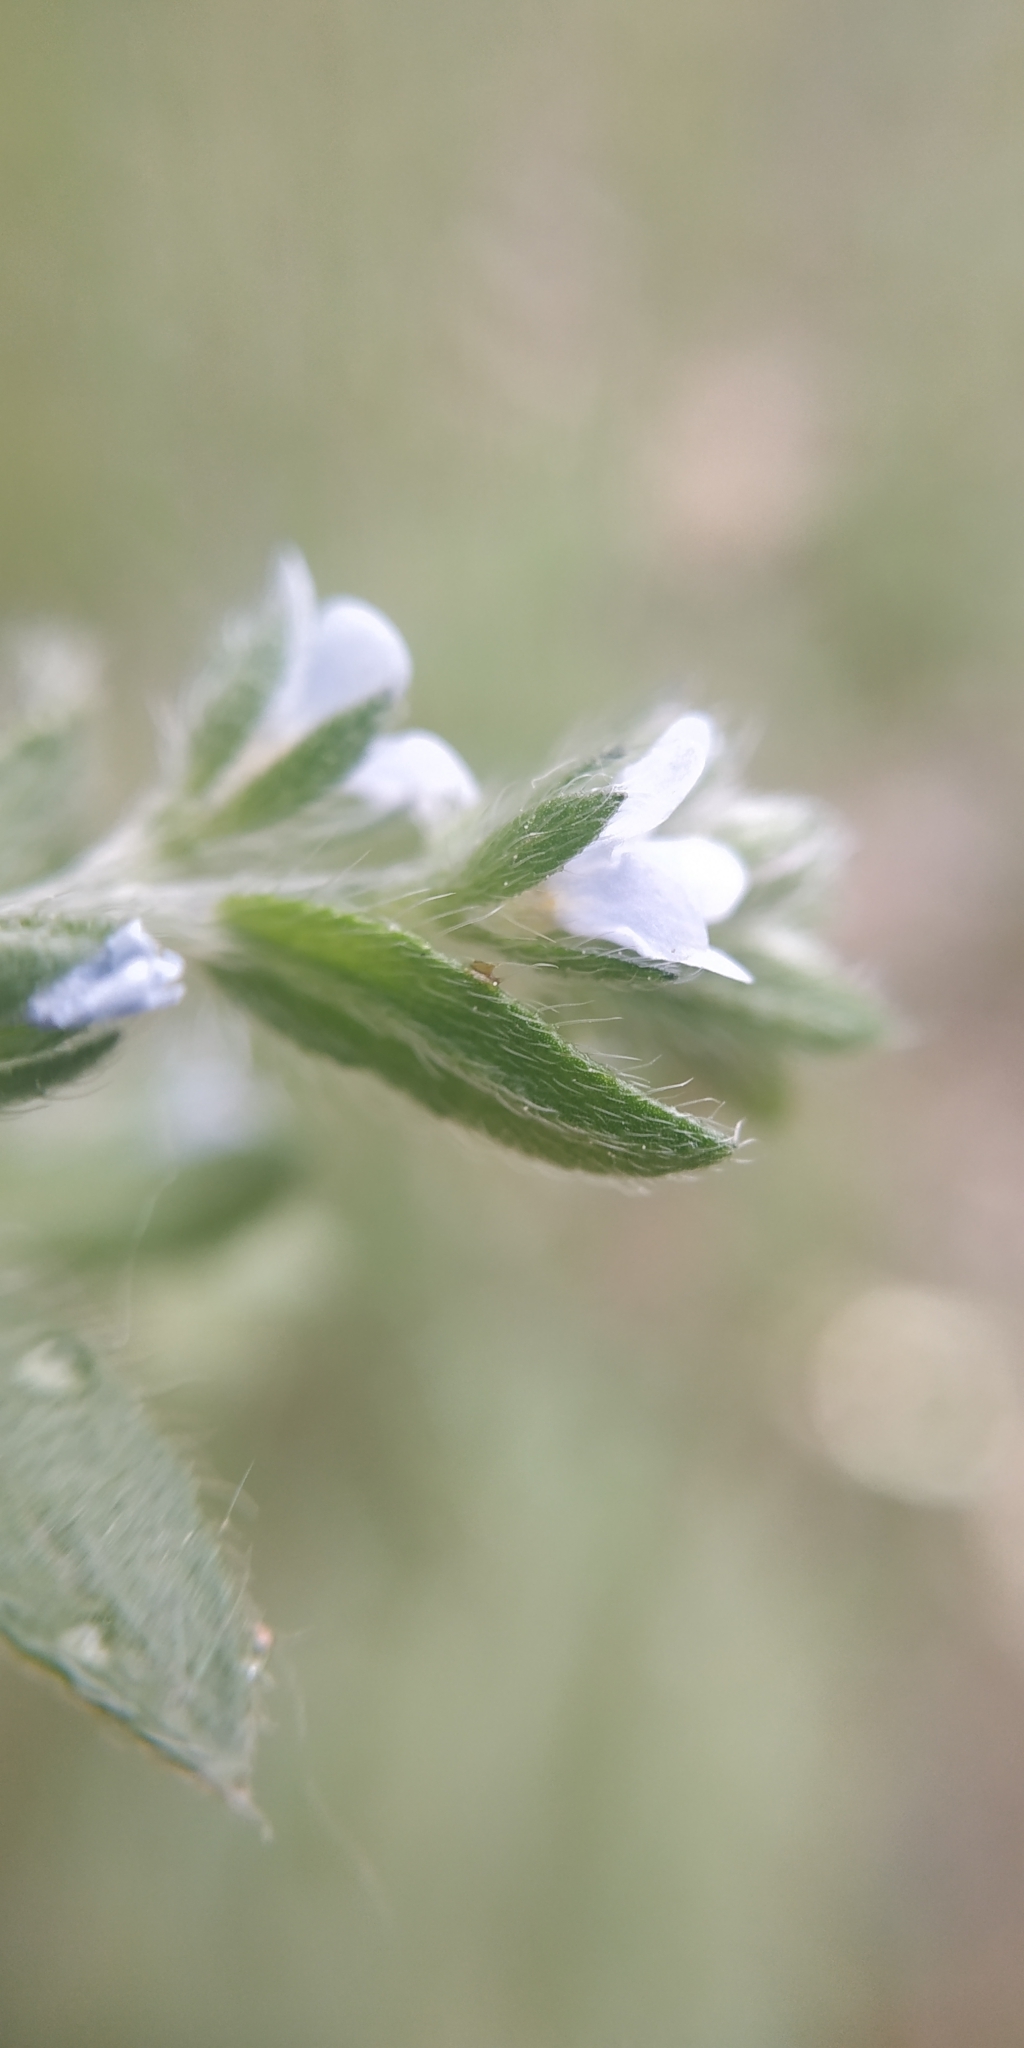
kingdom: Plantae
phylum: Tracheophyta
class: Magnoliopsida
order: Boraginales
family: Boraginaceae
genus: Lappula
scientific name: Lappula squarrosa
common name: European stickseed
